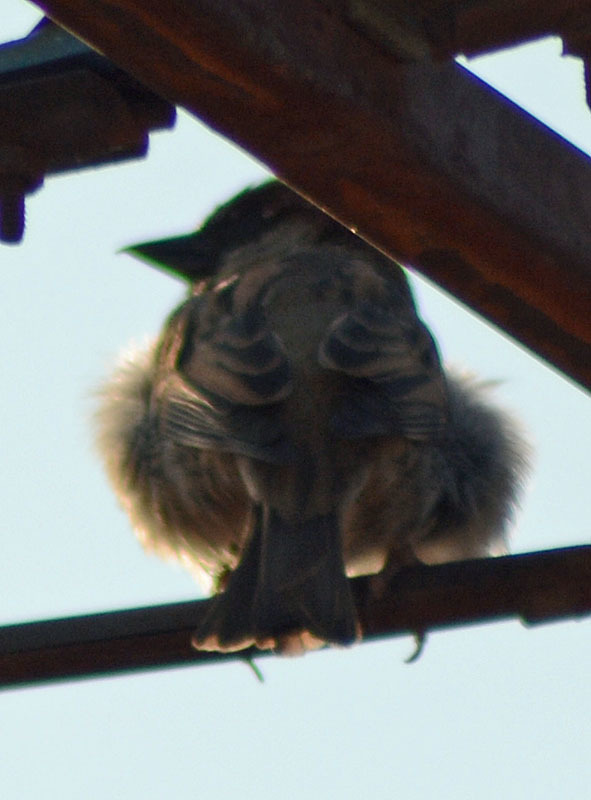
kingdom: Animalia
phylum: Chordata
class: Aves
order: Passeriformes
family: Passeridae
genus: Passer
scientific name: Passer domesticus
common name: House sparrow
